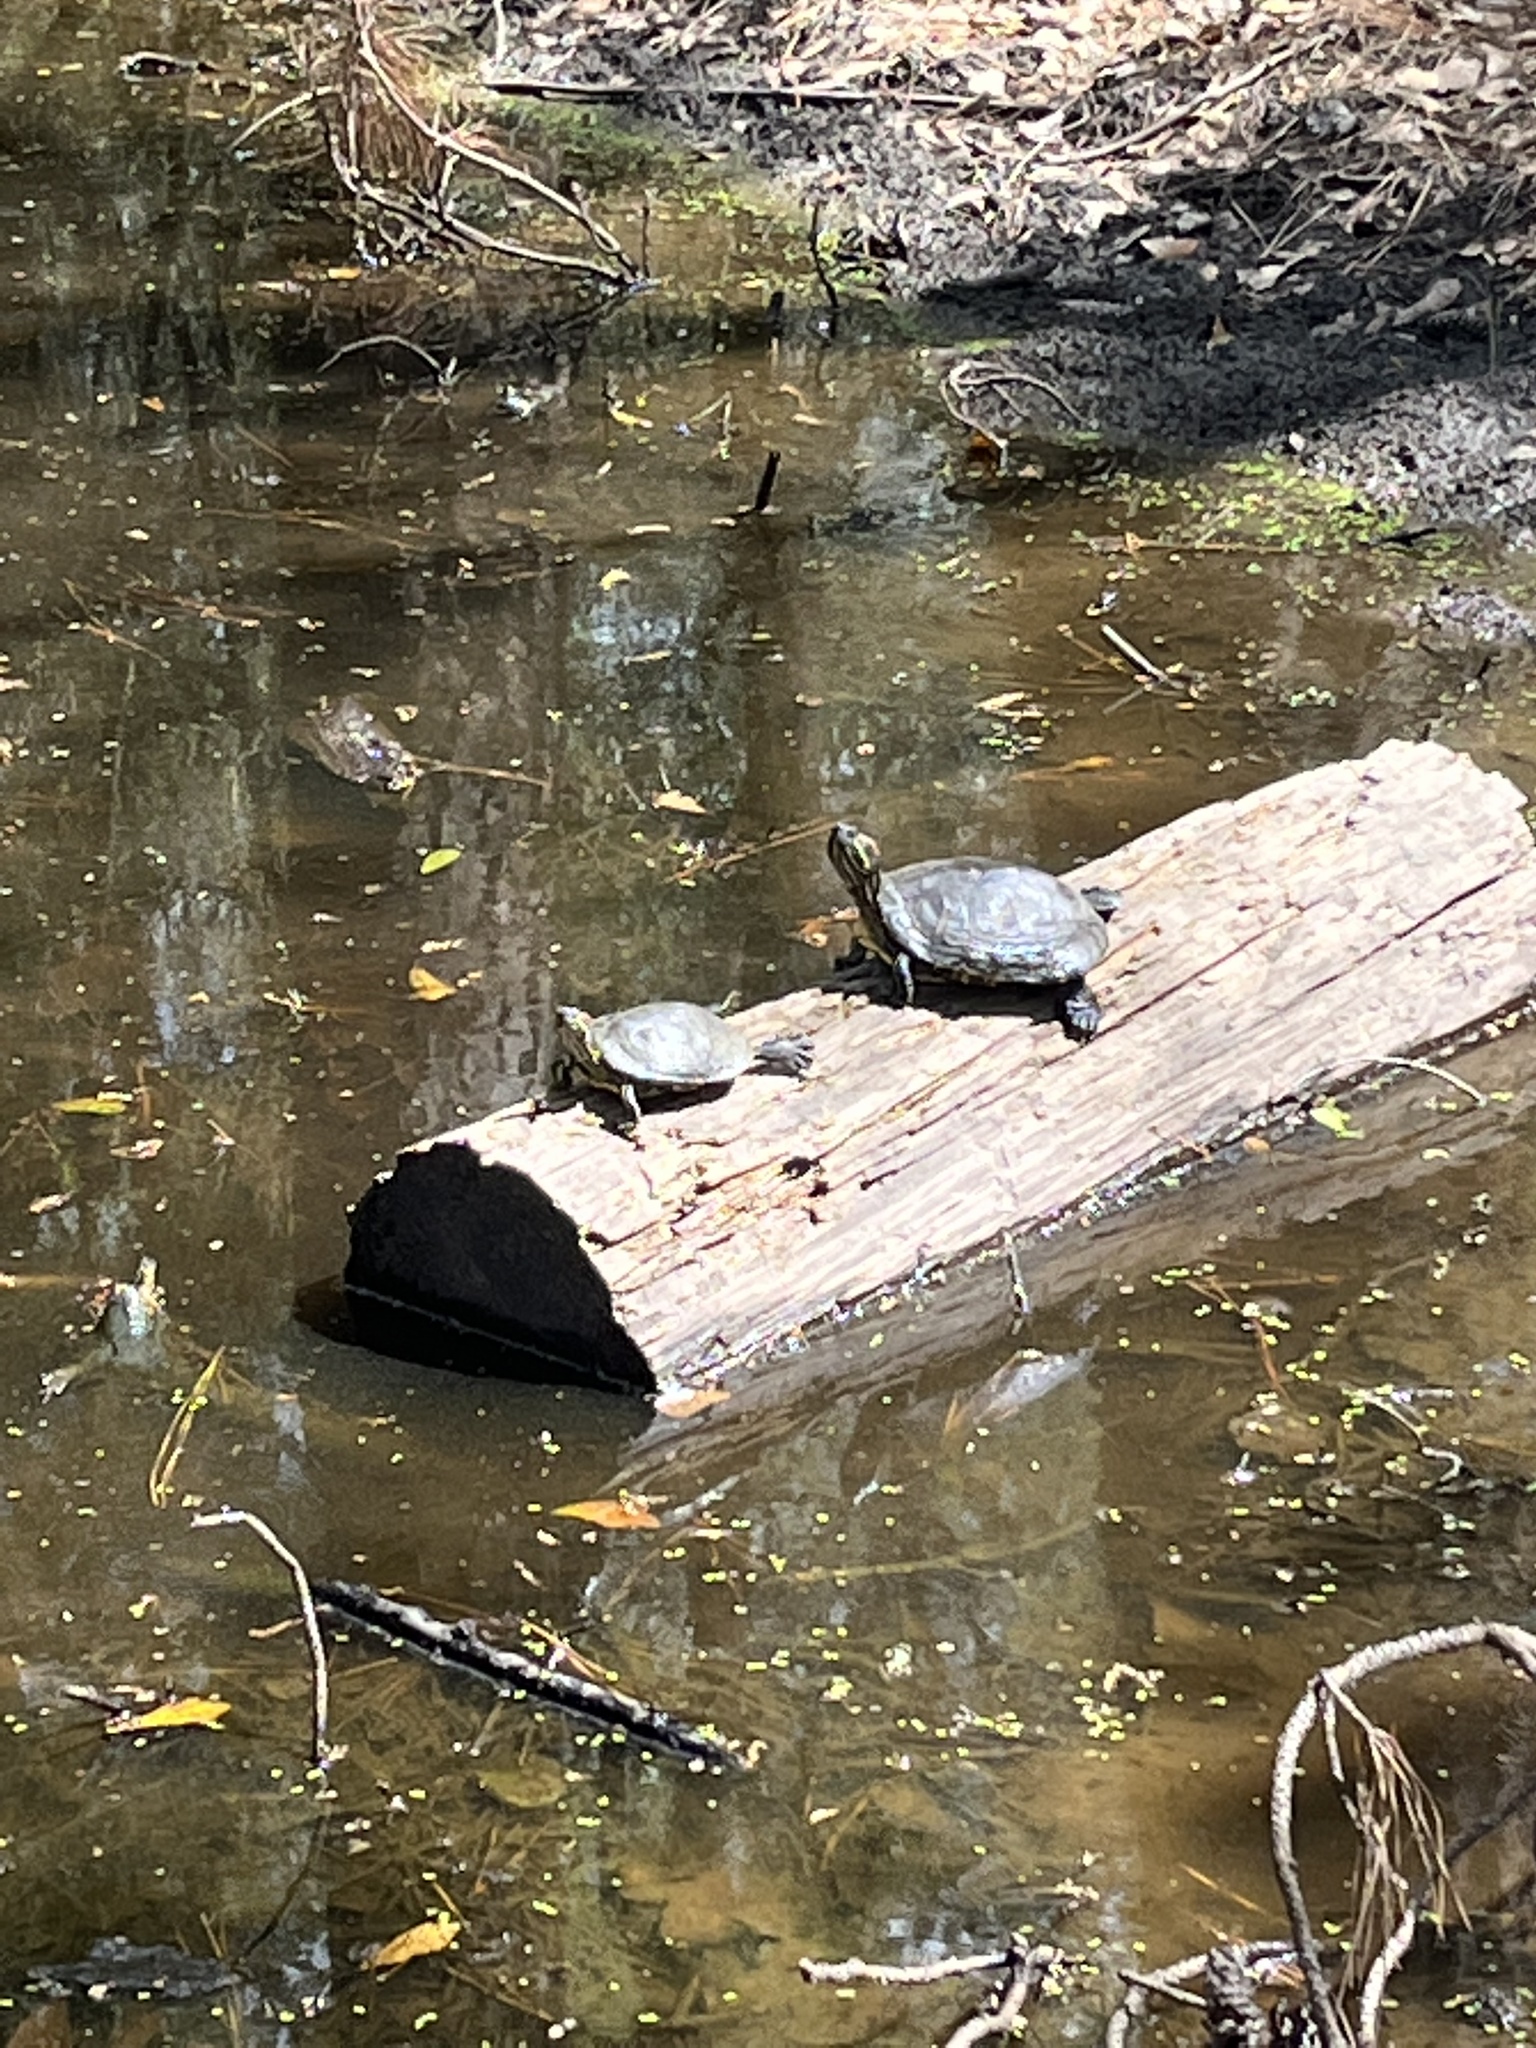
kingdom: Animalia
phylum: Chordata
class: Testudines
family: Emydidae
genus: Trachemys
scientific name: Trachemys scripta
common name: Slider
